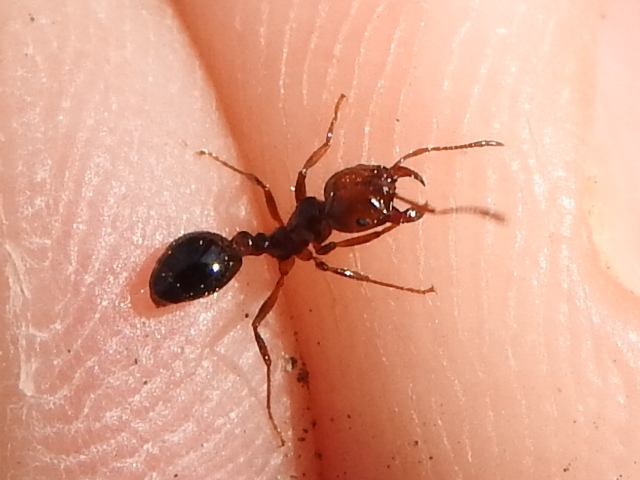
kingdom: Animalia
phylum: Arthropoda
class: Insecta
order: Hymenoptera
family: Formicidae
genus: Solenopsis
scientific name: Solenopsis invicta
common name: Red imported fire ant
